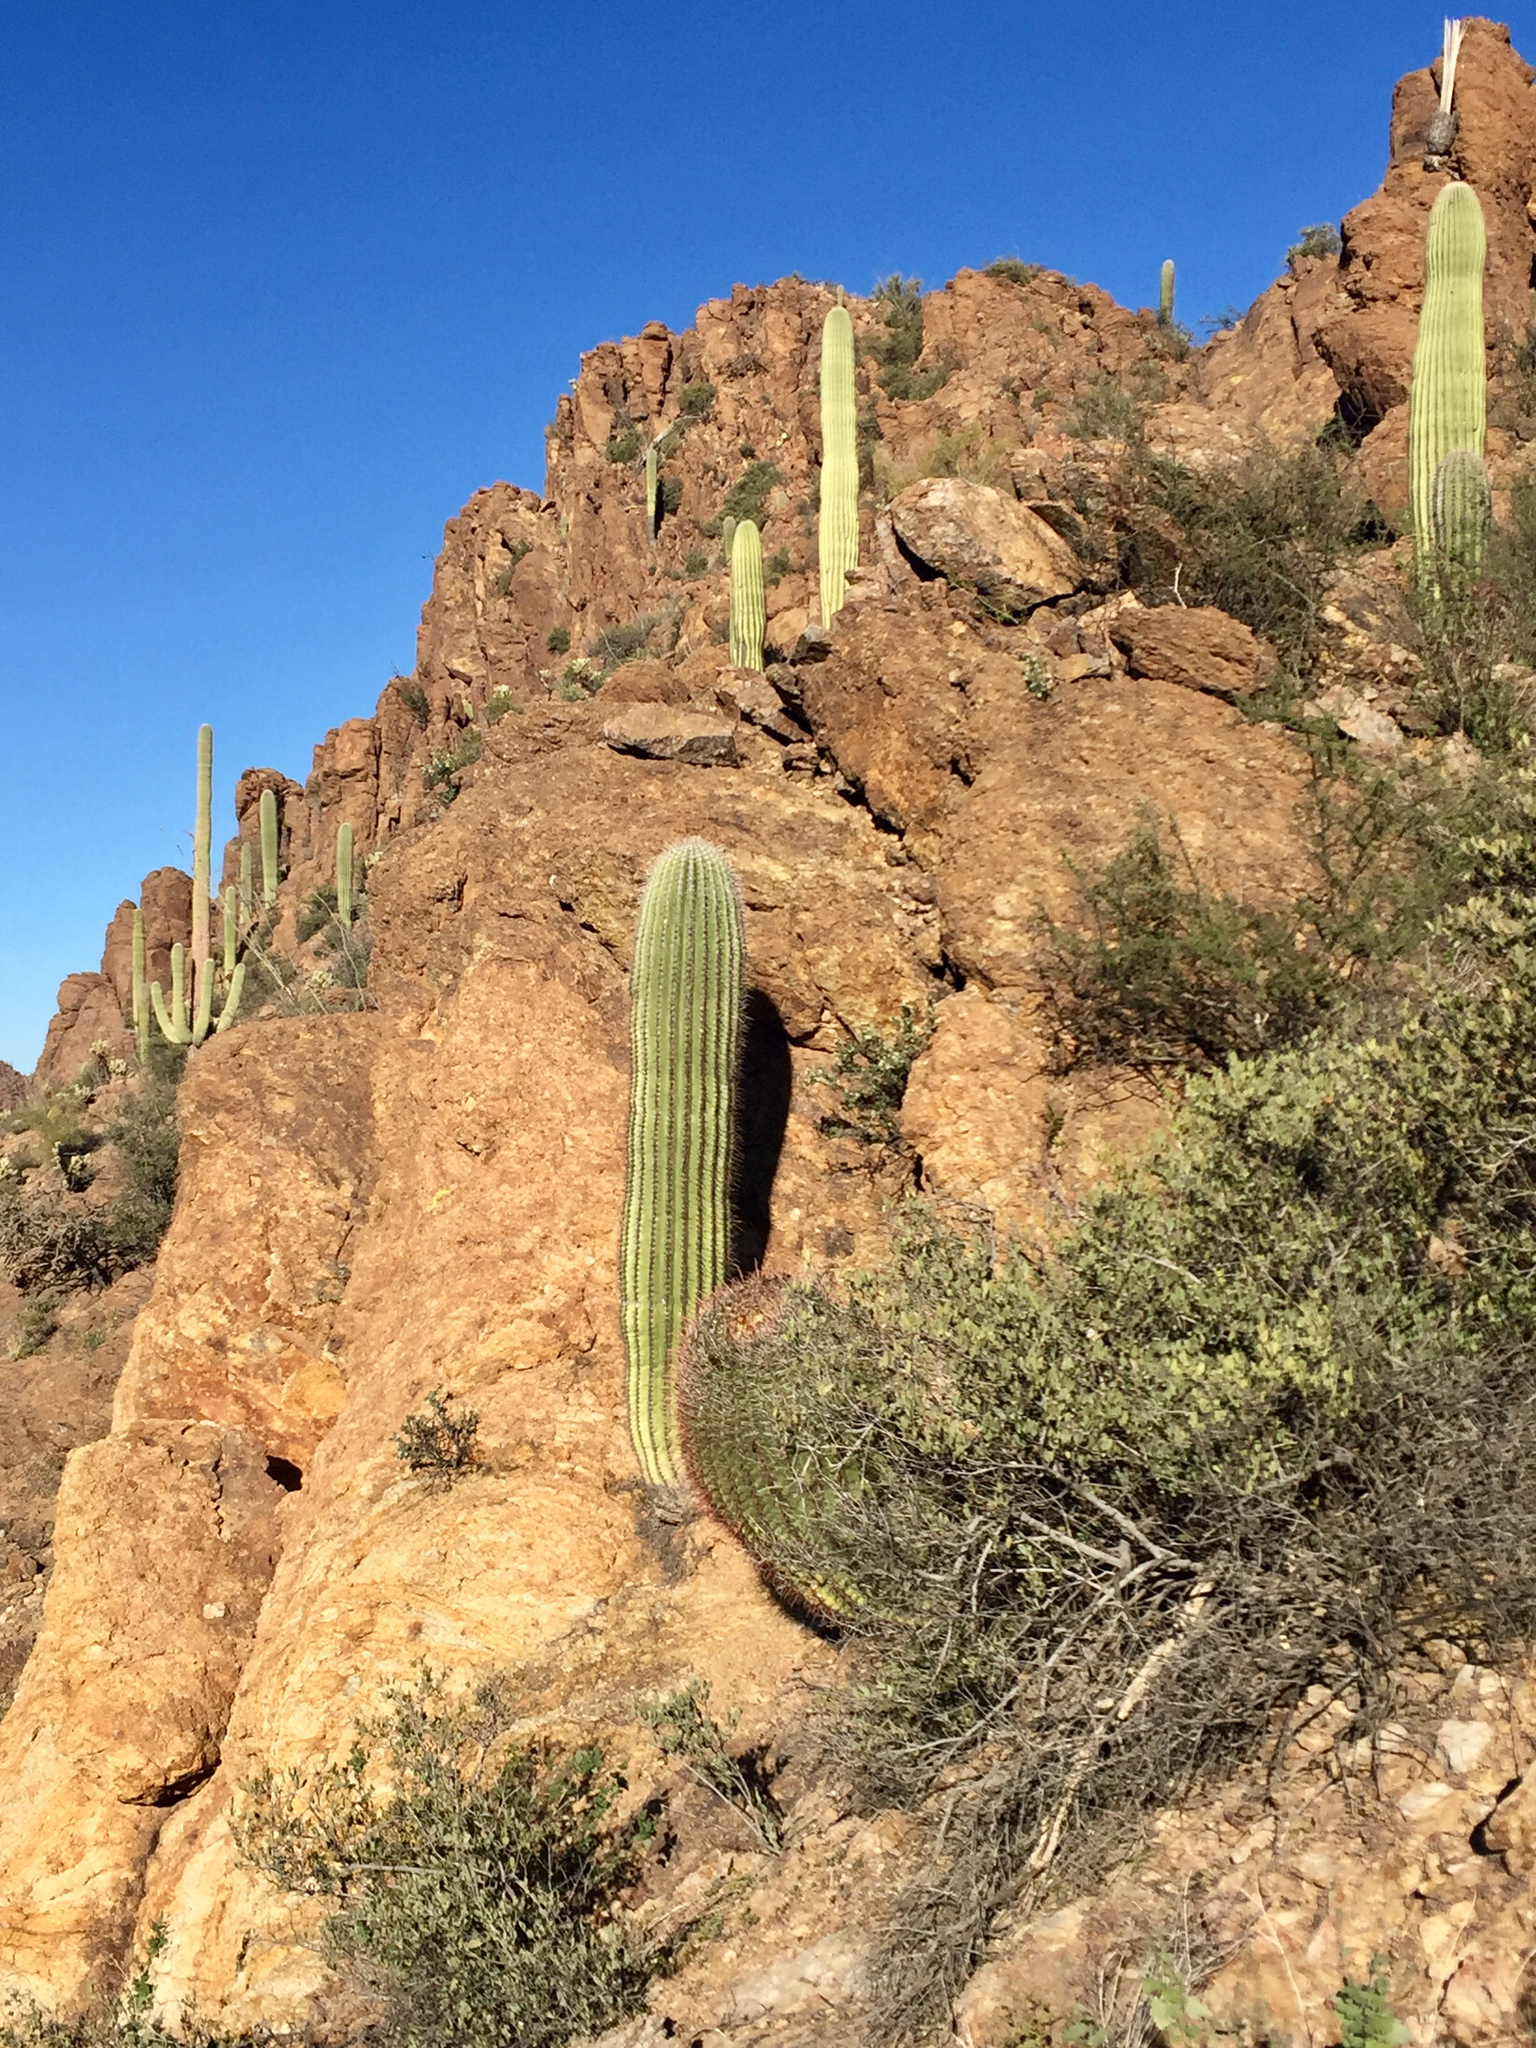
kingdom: Plantae
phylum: Tracheophyta
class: Magnoliopsida
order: Caryophyllales
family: Cactaceae
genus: Carnegiea
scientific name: Carnegiea gigantea
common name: Saguaro
